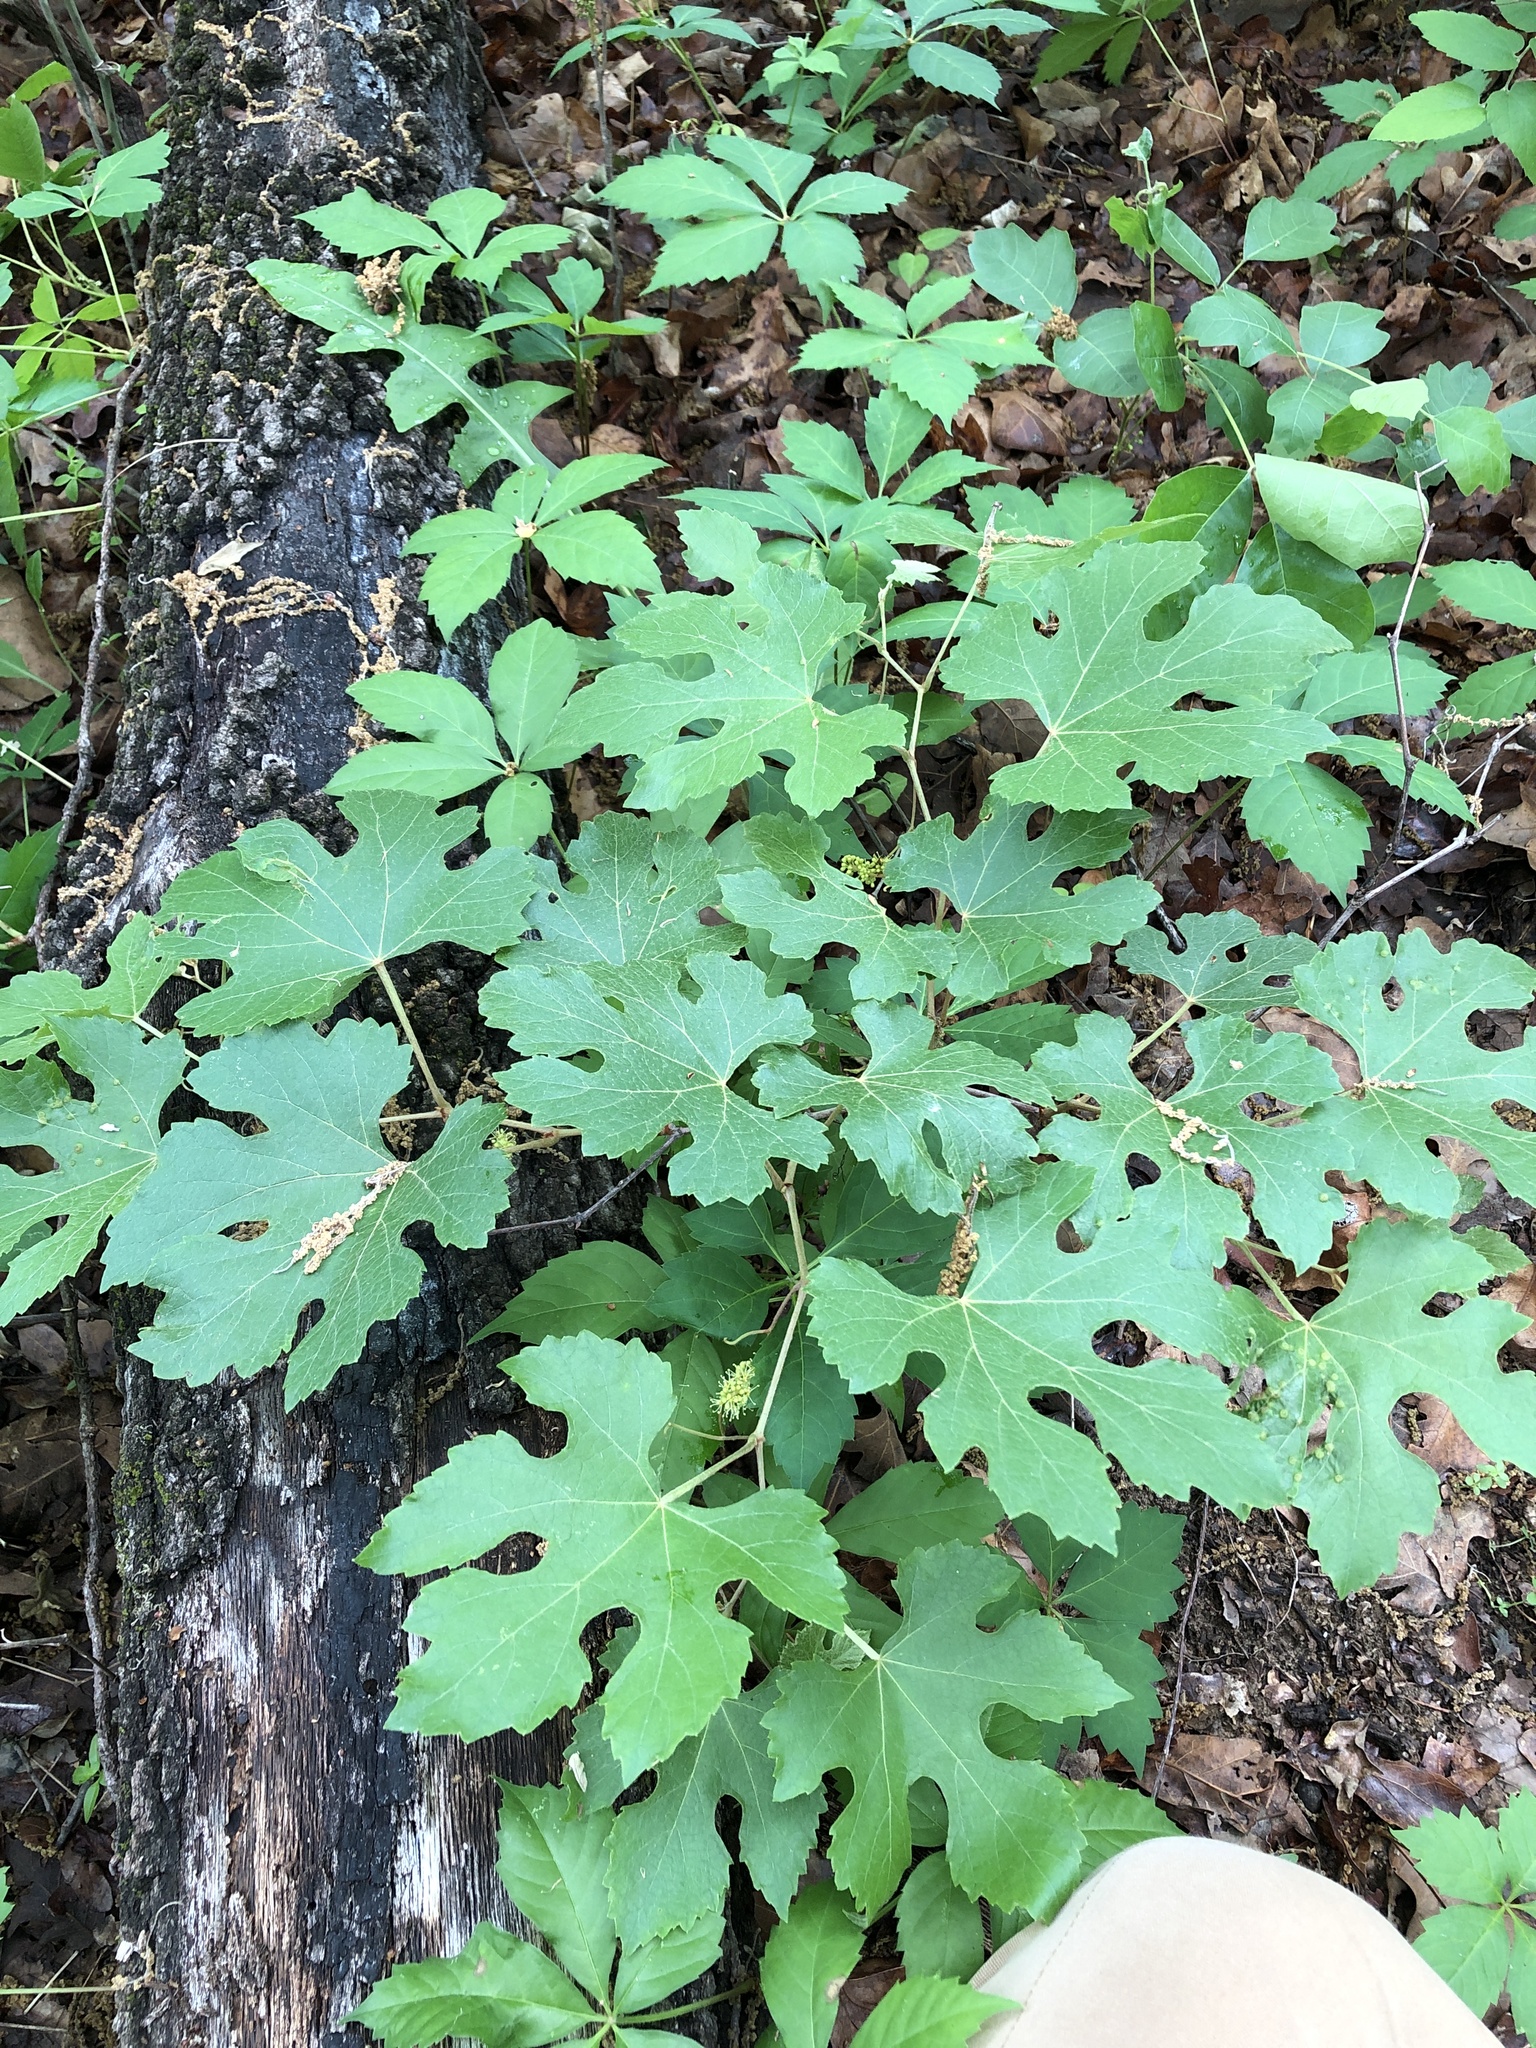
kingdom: Plantae
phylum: Tracheophyta
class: Magnoliopsida
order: Vitales
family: Vitaceae
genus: Vitis
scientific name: Vitis aestivalis
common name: Pigeon grape
